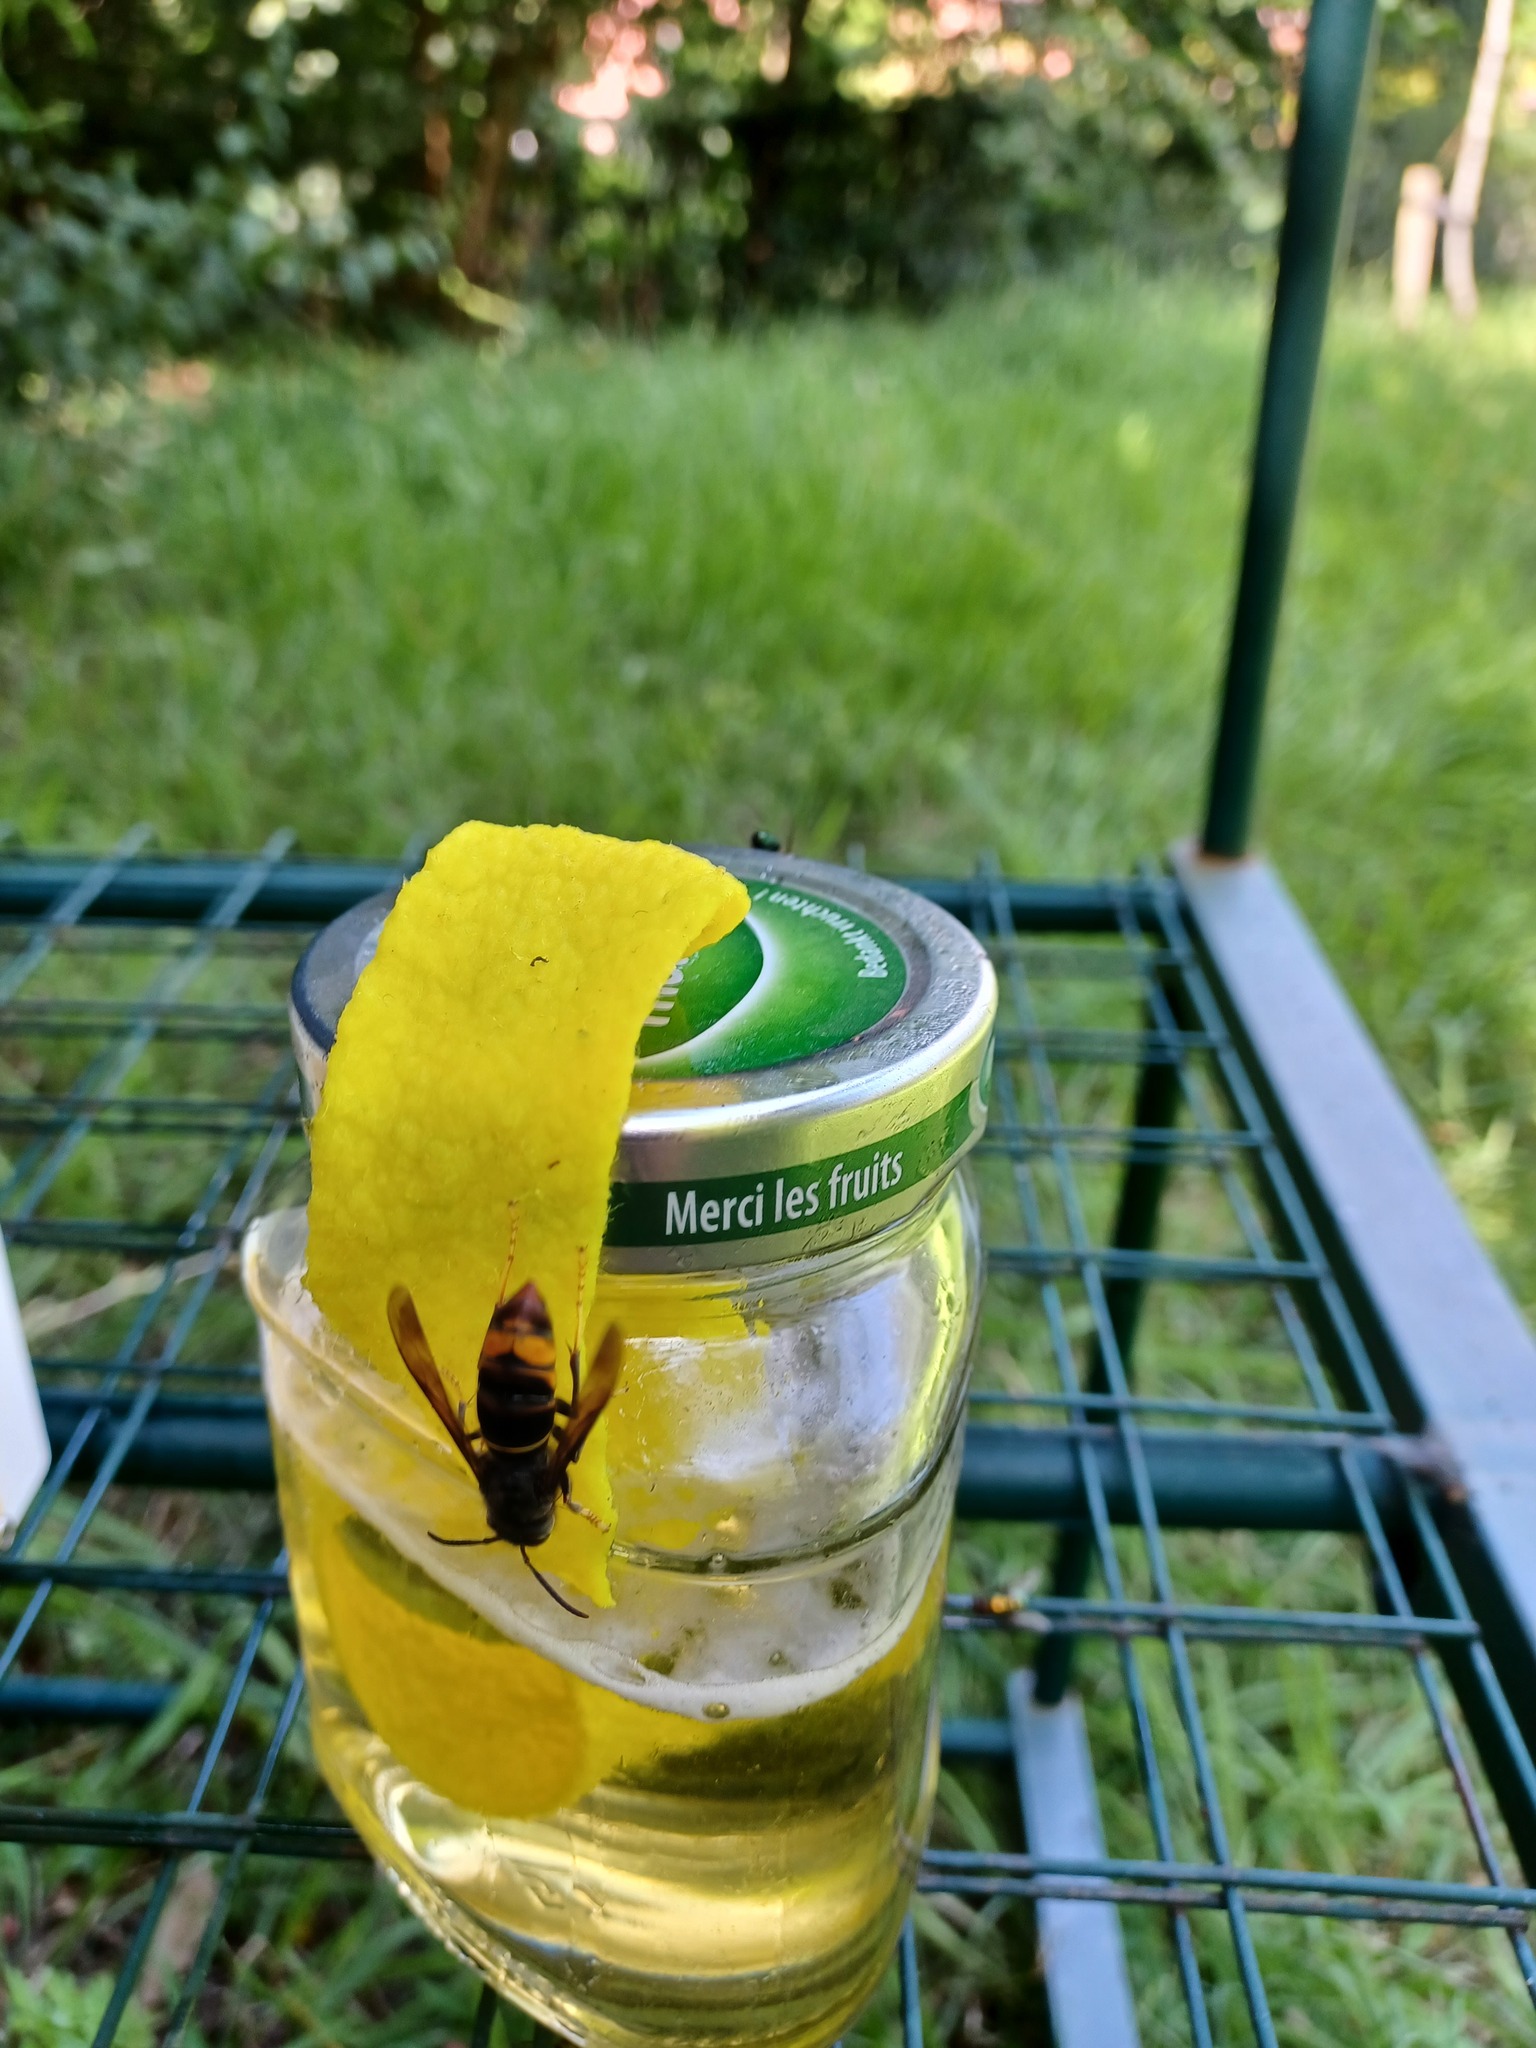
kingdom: Animalia
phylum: Arthropoda
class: Insecta
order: Hymenoptera
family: Vespidae
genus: Vespa
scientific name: Vespa velutina
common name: Asian hornet
